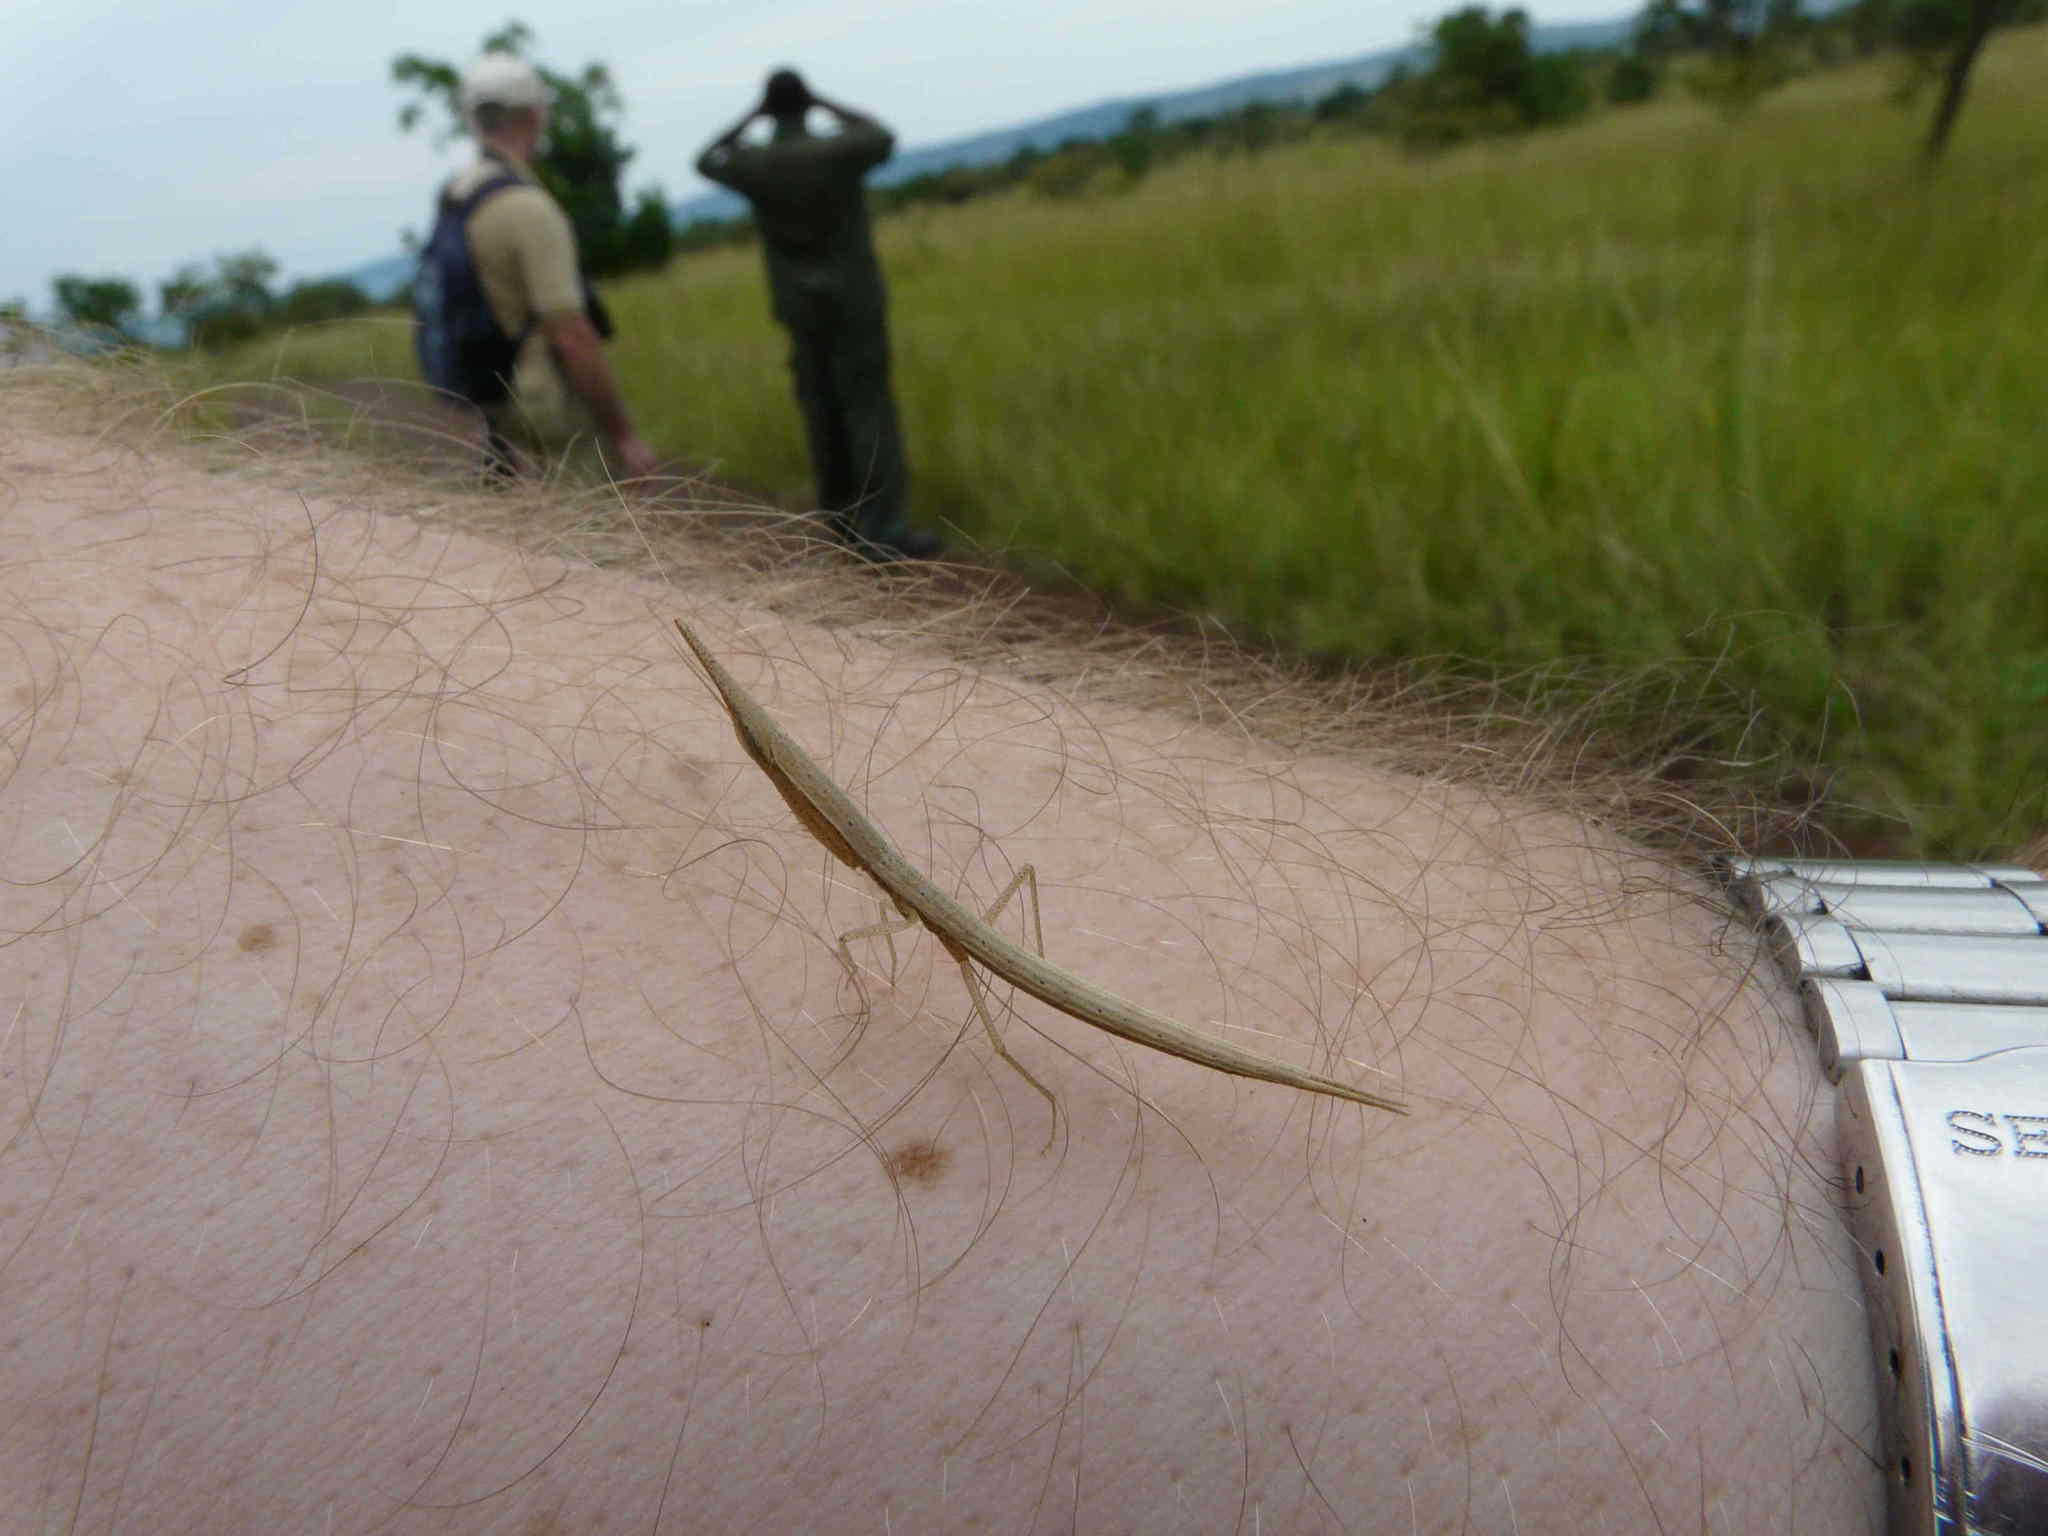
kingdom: Animalia
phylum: Arthropoda
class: Insecta
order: Mantodea
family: Eremiaphilidae
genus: Pyrgomantis
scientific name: Pyrgomantis rhodesica
